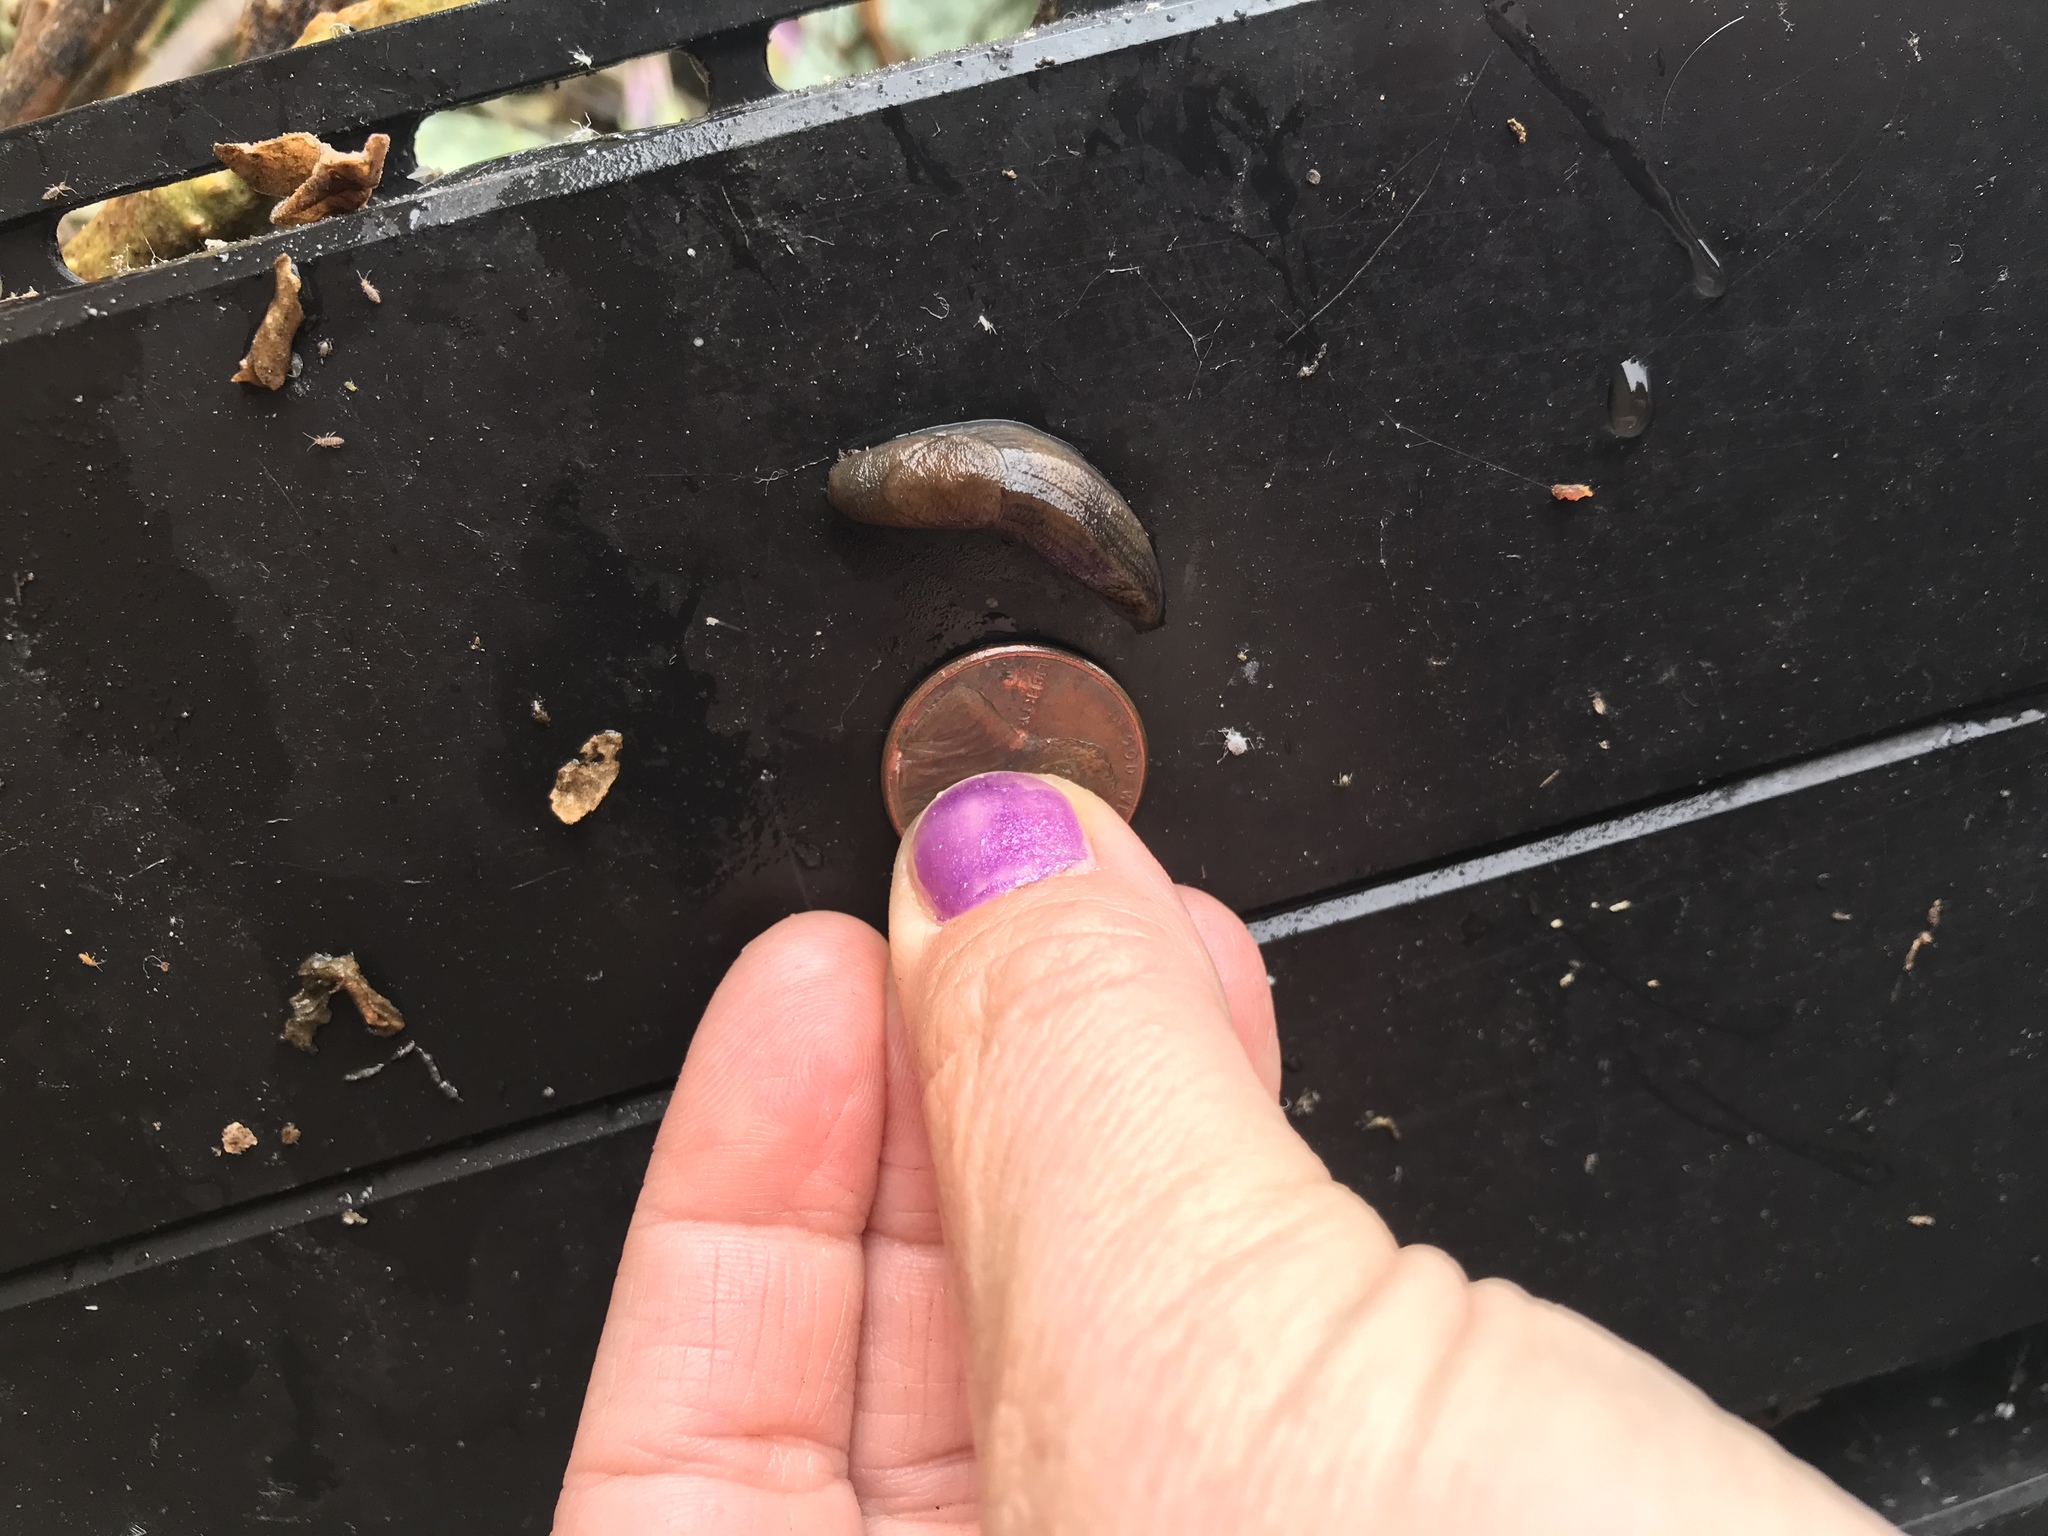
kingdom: Animalia
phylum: Mollusca
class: Gastropoda
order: Stylommatophora
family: Milacidae
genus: Milax
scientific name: Milax gagates
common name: Greenhouse slug
